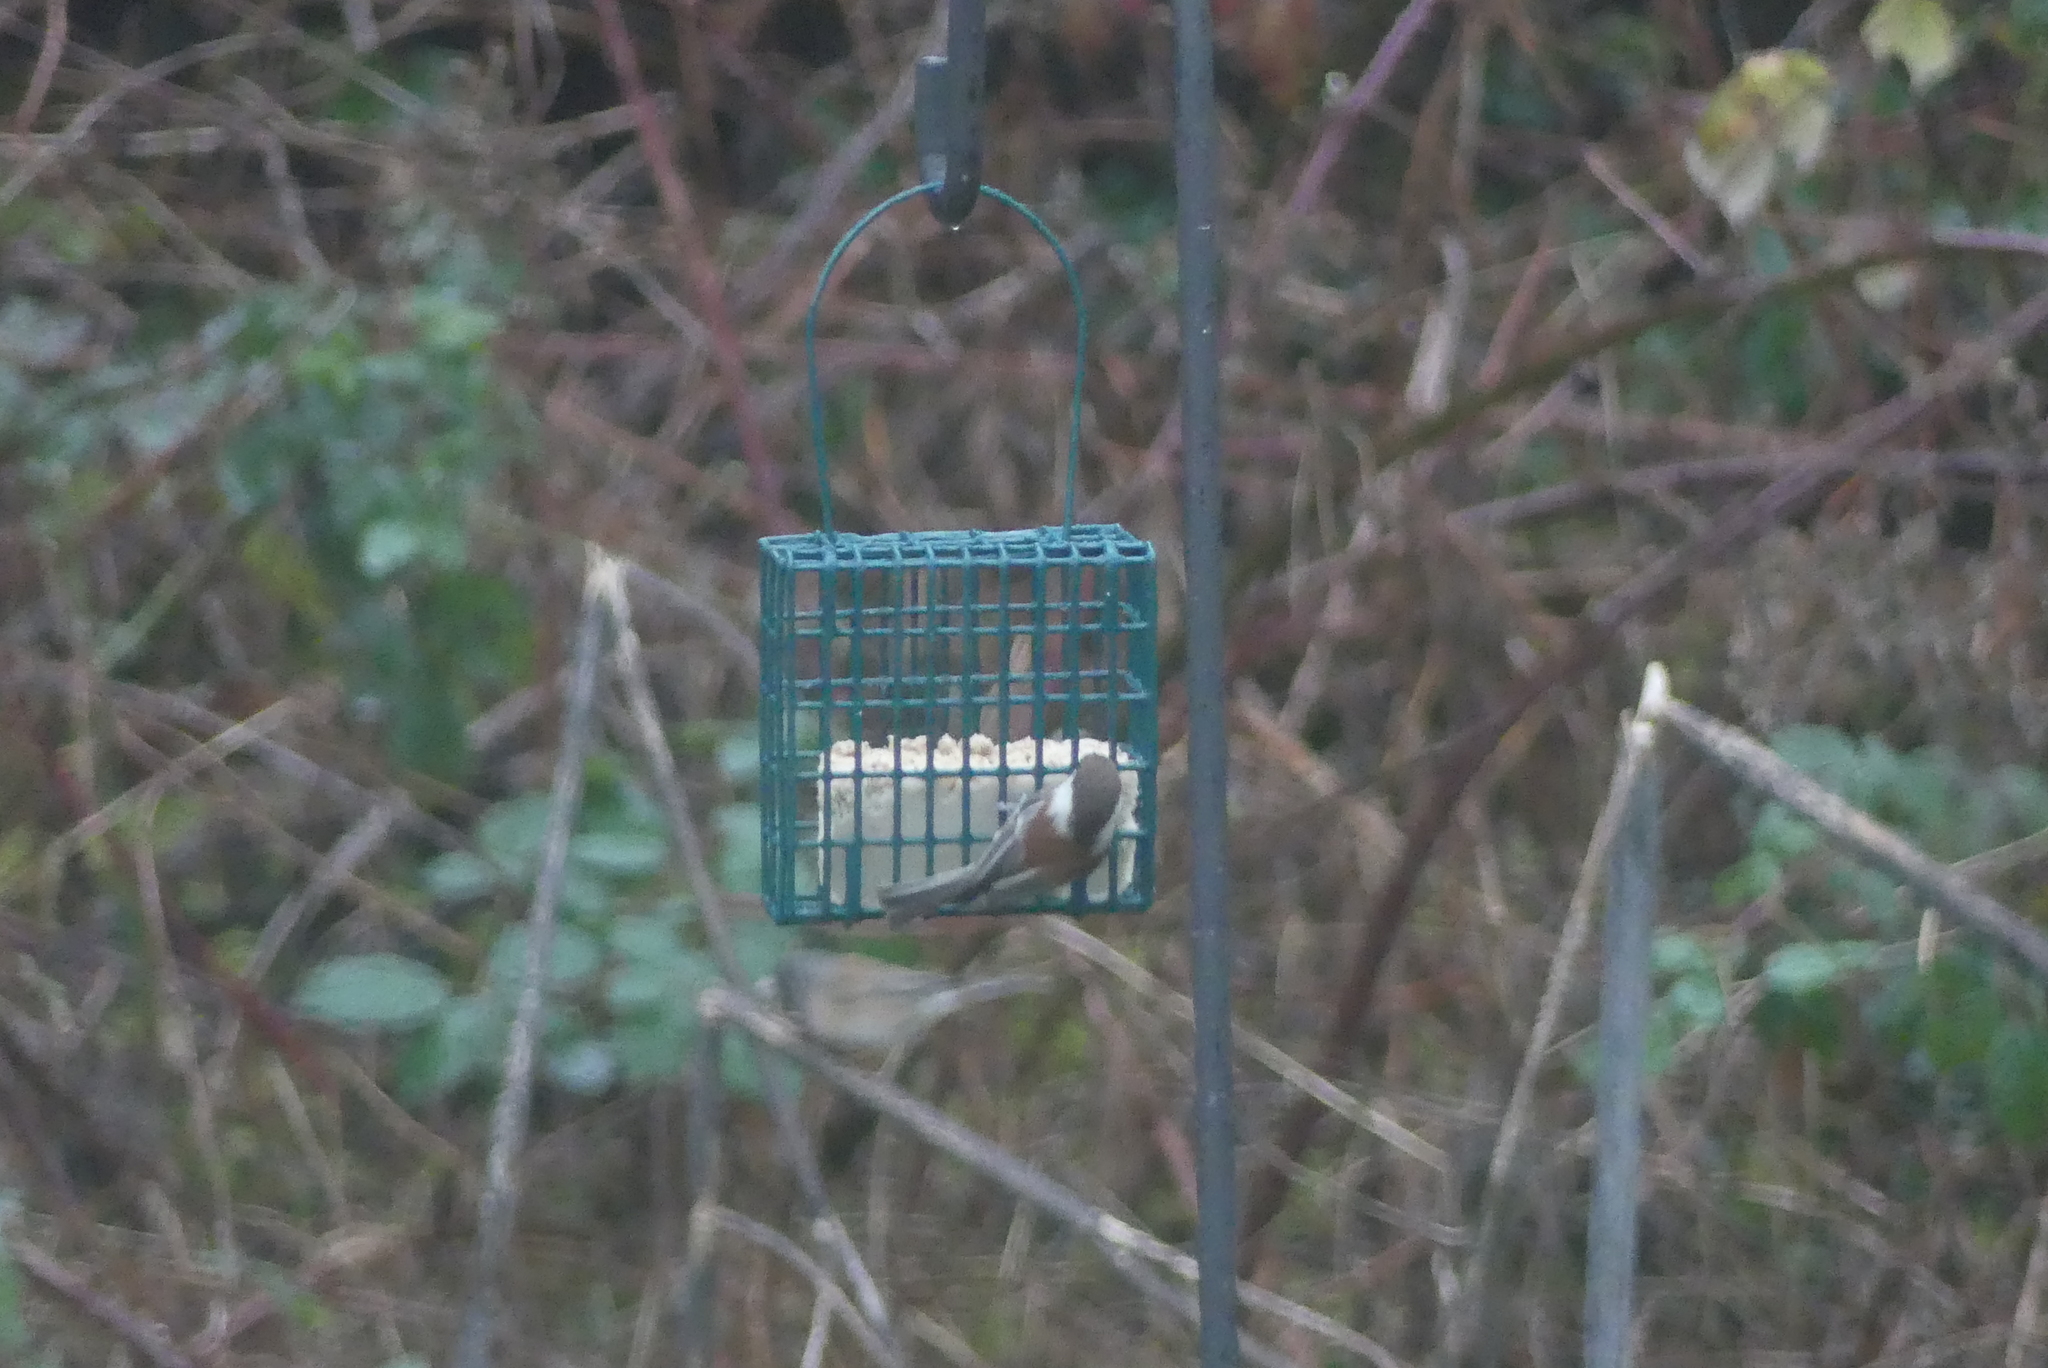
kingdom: Animalia
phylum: Chordata
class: Aves
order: Passeriformes
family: Paridae
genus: Poecile
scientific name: Poecile rufescens
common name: Chestnut-backed chickadee
